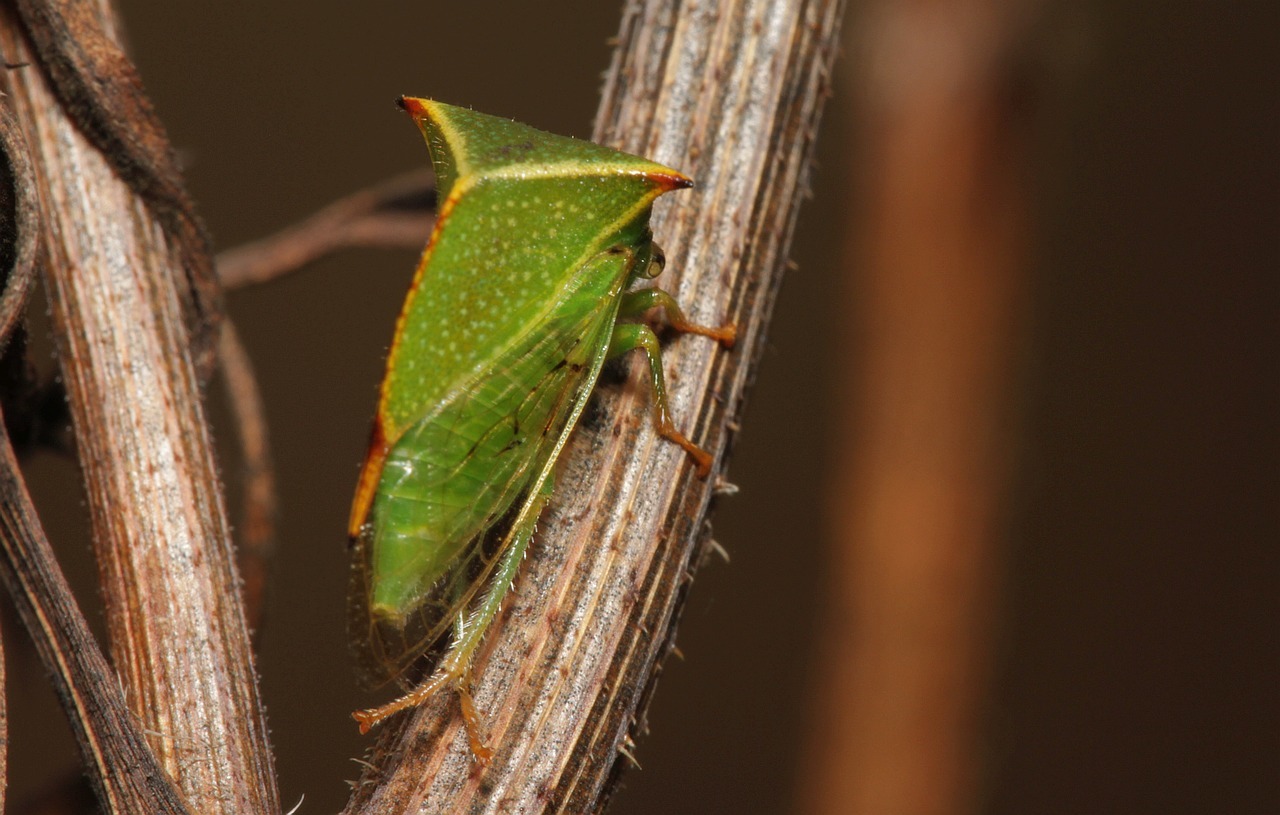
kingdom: Animalia
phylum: Arthropoda
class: Insecta
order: Hemiptera
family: Membracidae
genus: Stictocephala
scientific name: Stictocephala bisonia
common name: American buffalo treehopper
